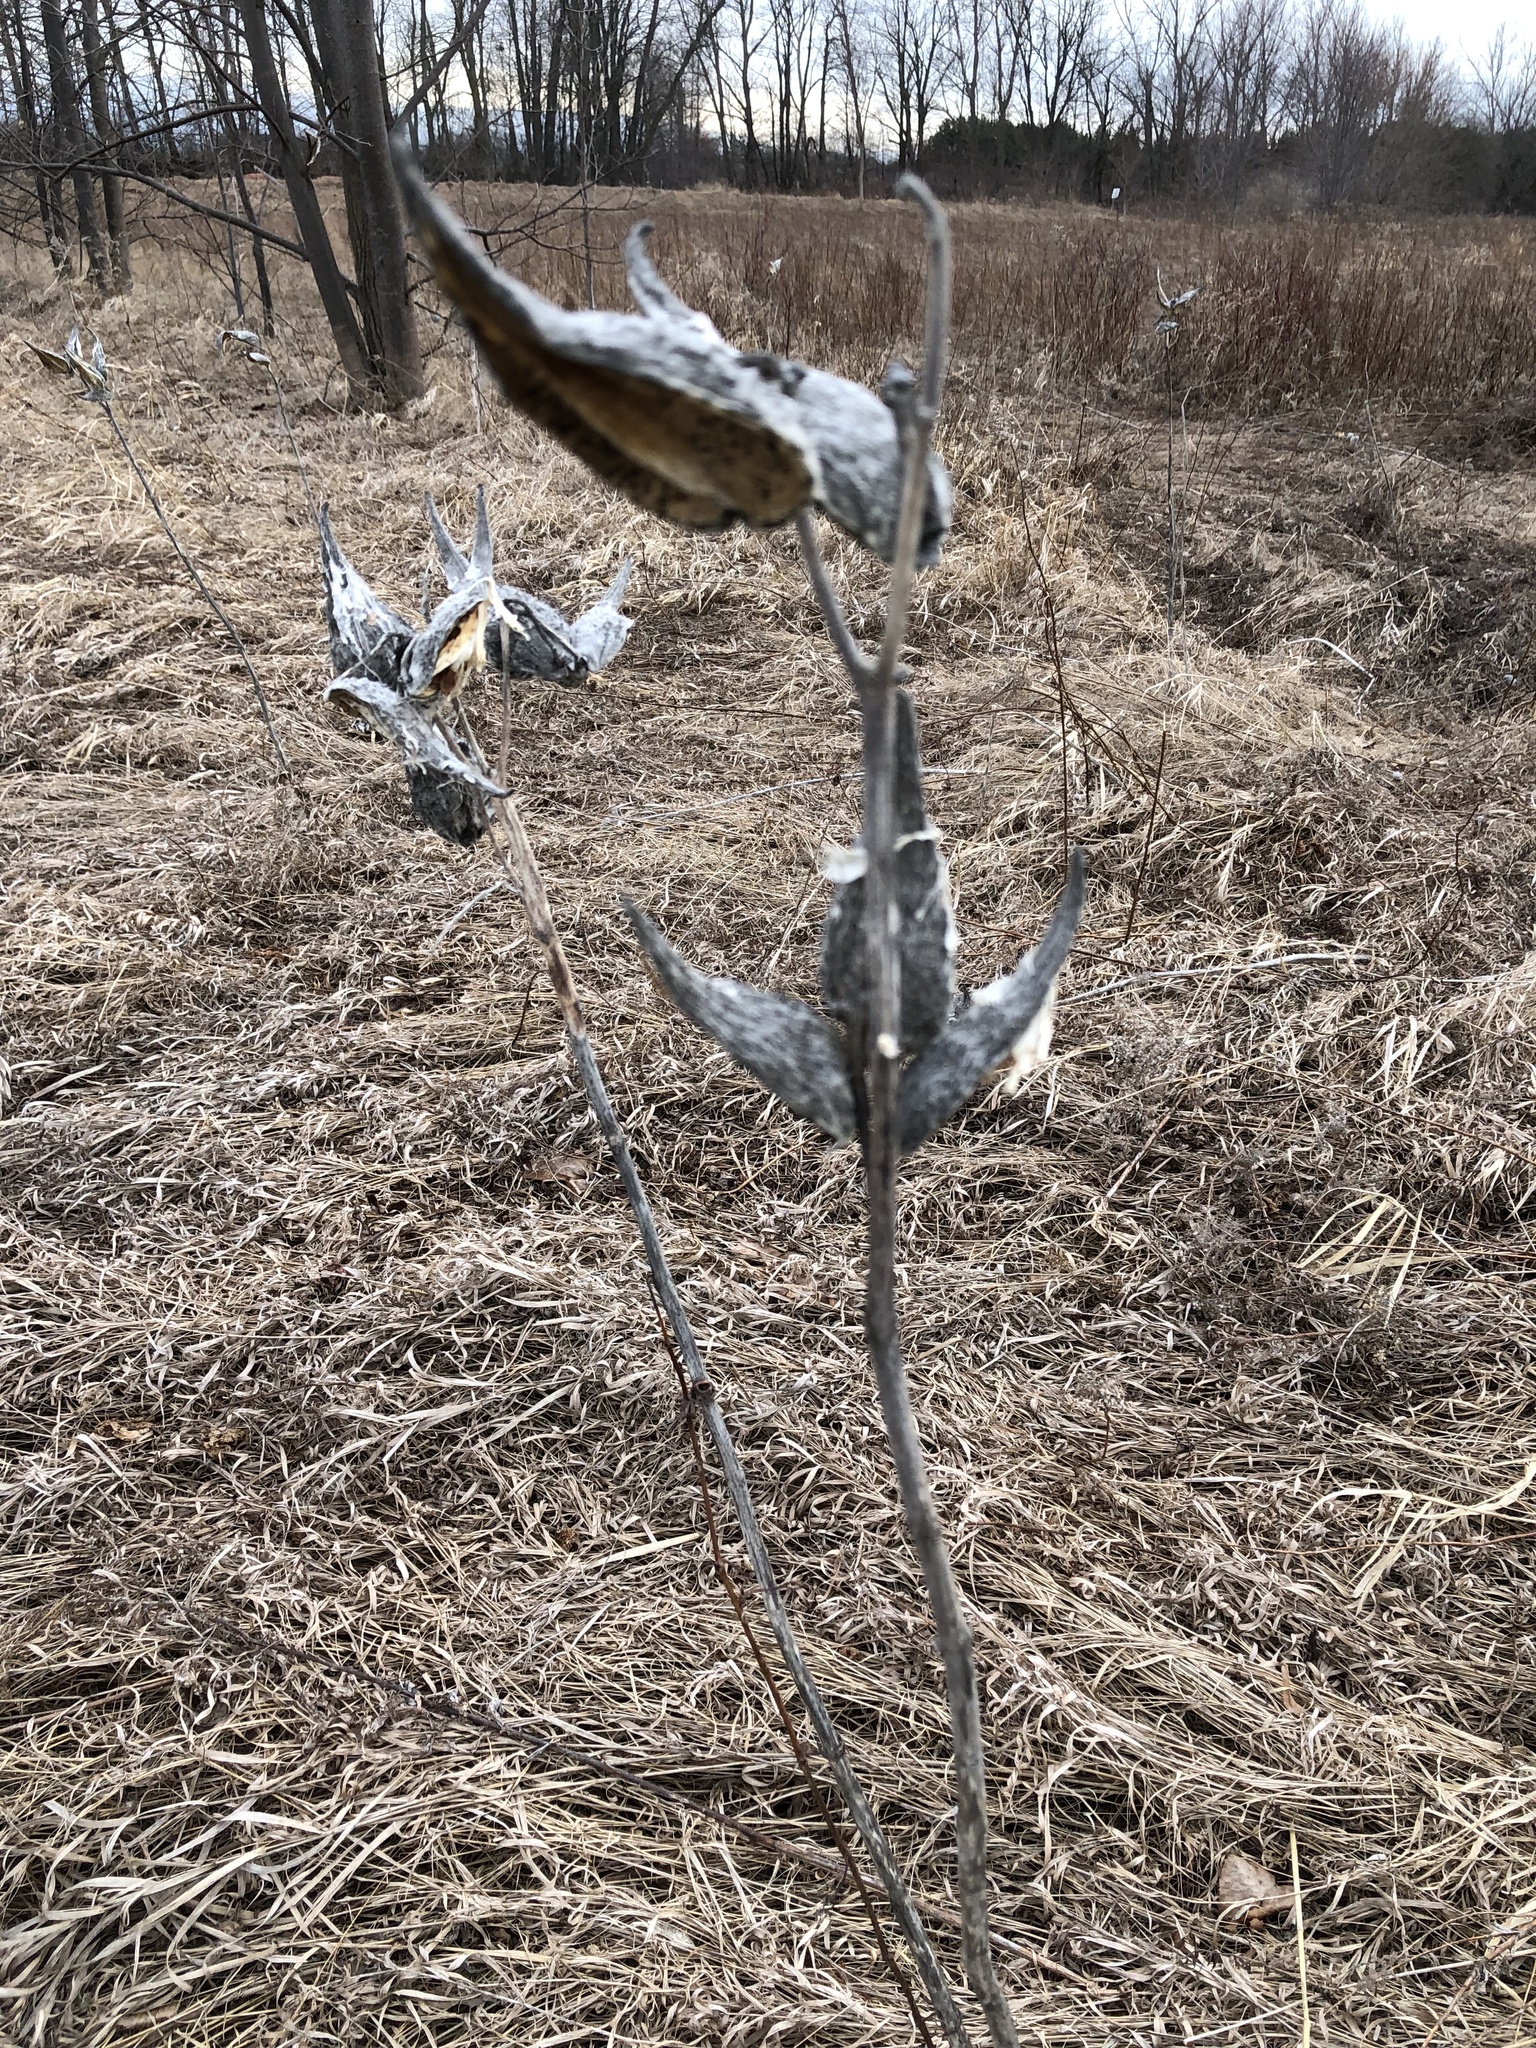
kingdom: Plantae
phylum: Tracheophyta
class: Magnoliopsida
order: Gentianales
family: Apocynaceae
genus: Asclepias
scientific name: Asclepias syriaca
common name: Common milkweed
